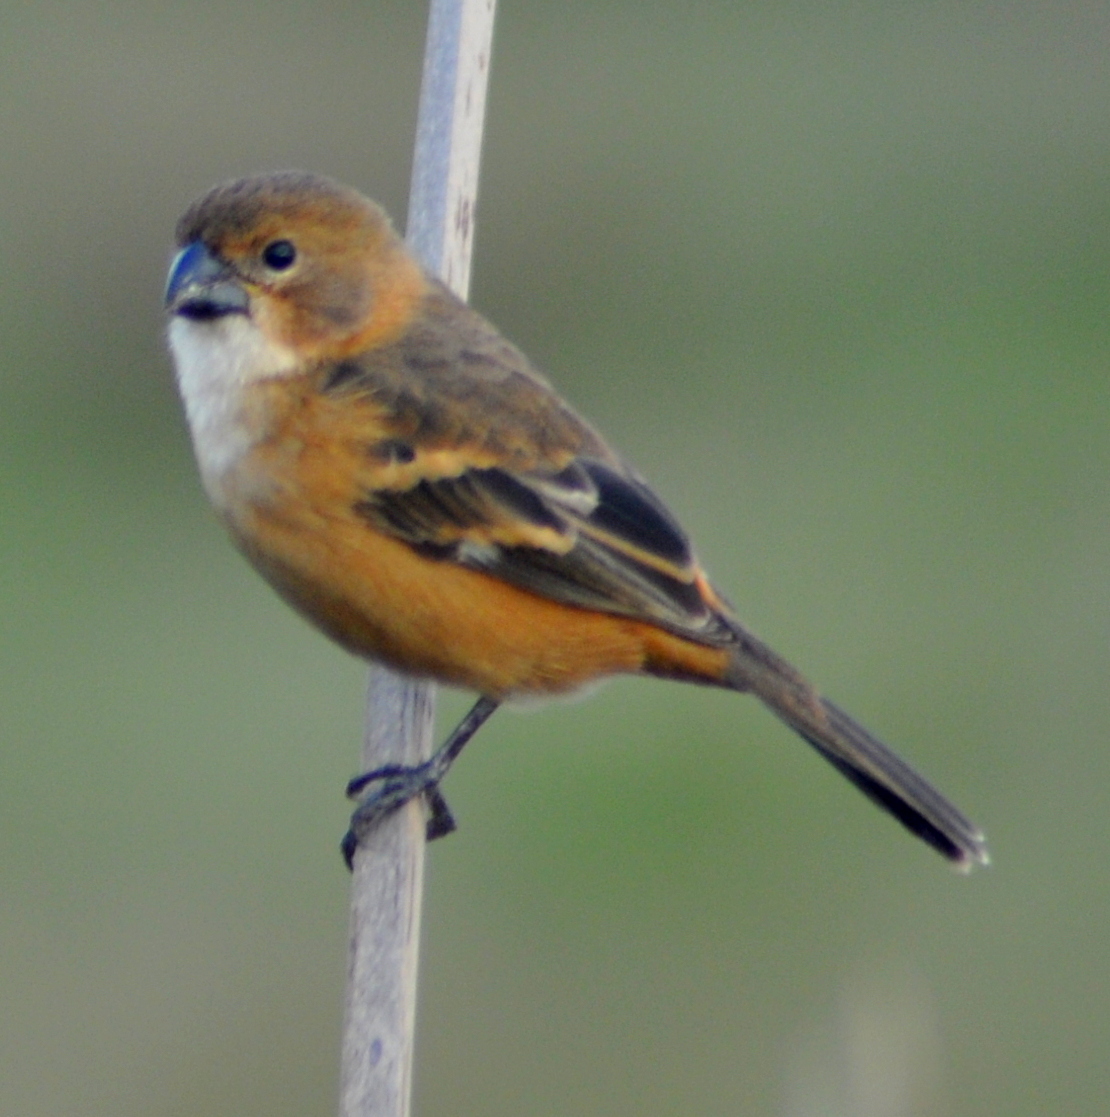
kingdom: Animalia
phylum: Chordata
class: Aves
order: Passeriformes
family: Thraupidae
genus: Sporophila
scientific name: Sporophila collaris
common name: Rusty-collared seedeater
